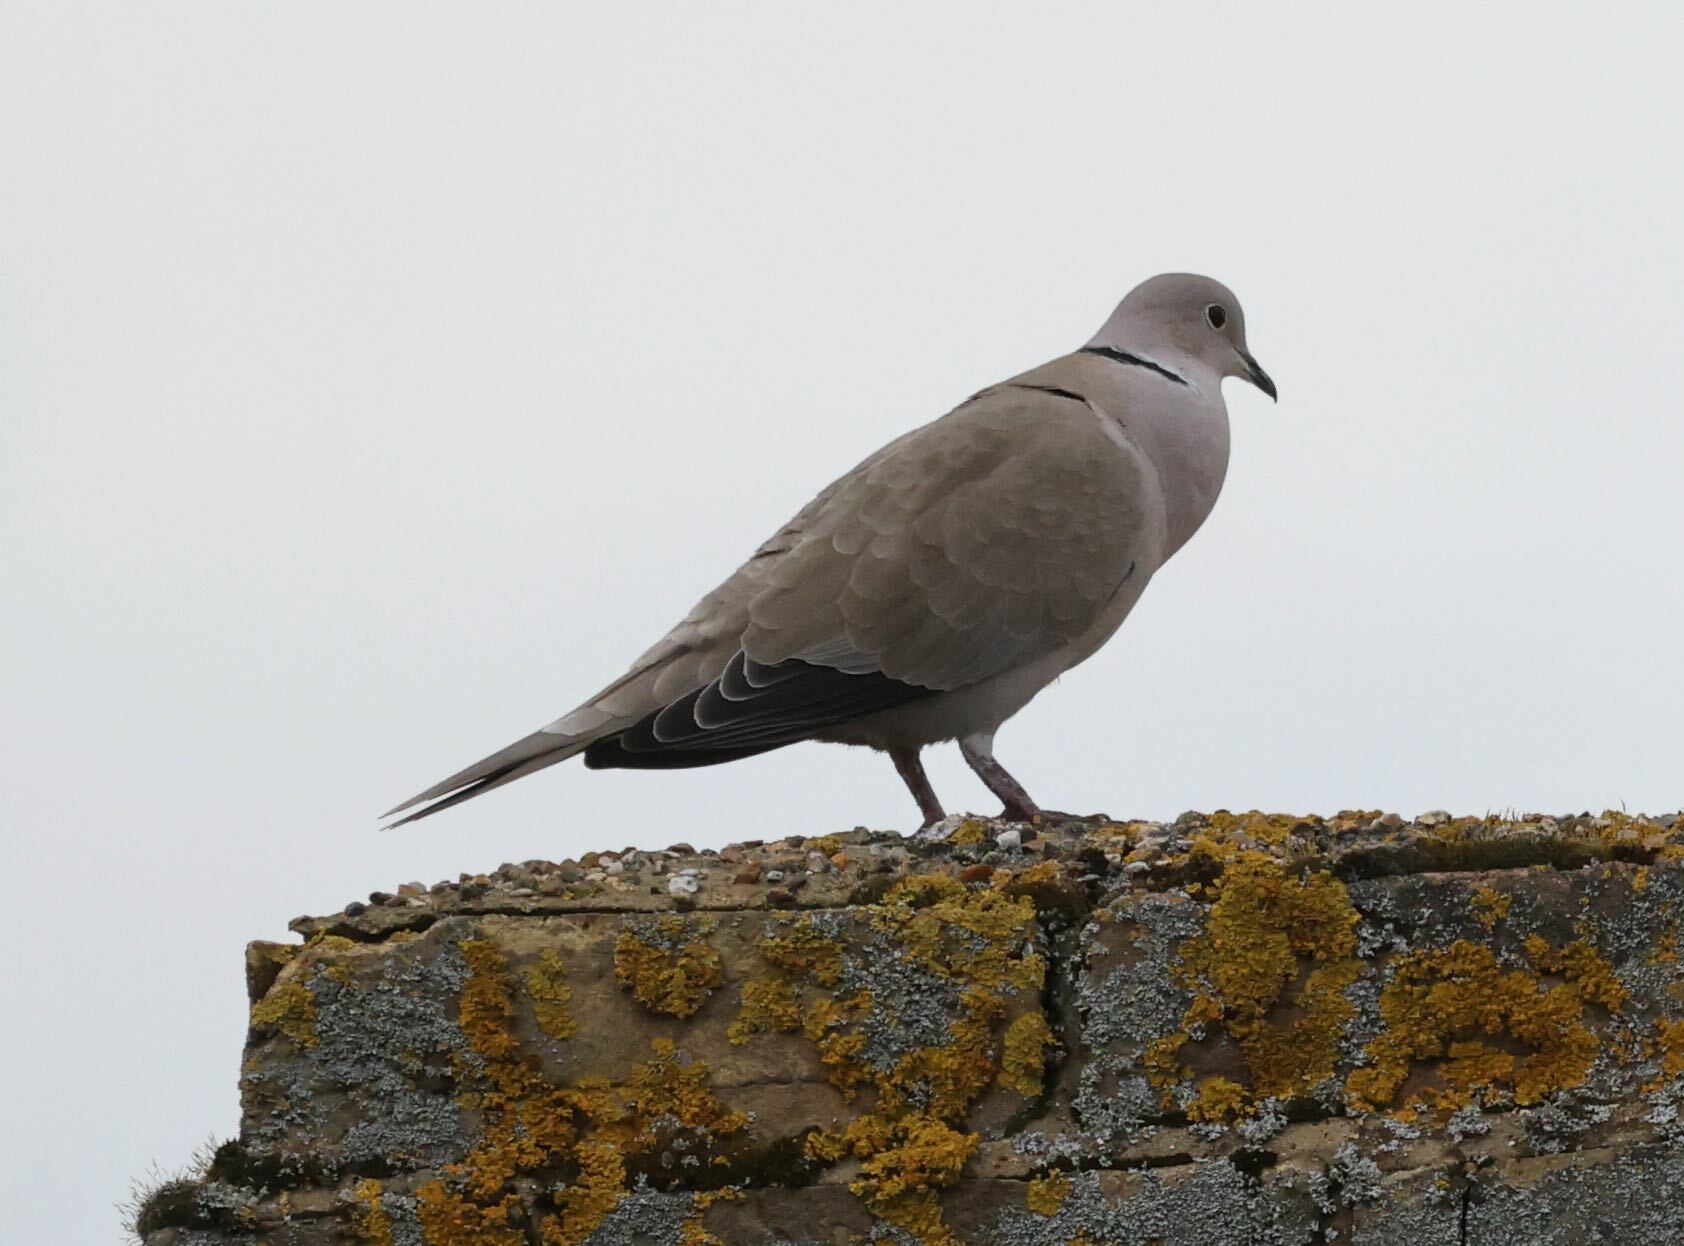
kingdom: Animalia
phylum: Chordata
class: Aves
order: Columbiformes
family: Columbidae
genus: Streptopelia
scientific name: Streptopelia decaocto
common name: Eurasian collared dove
